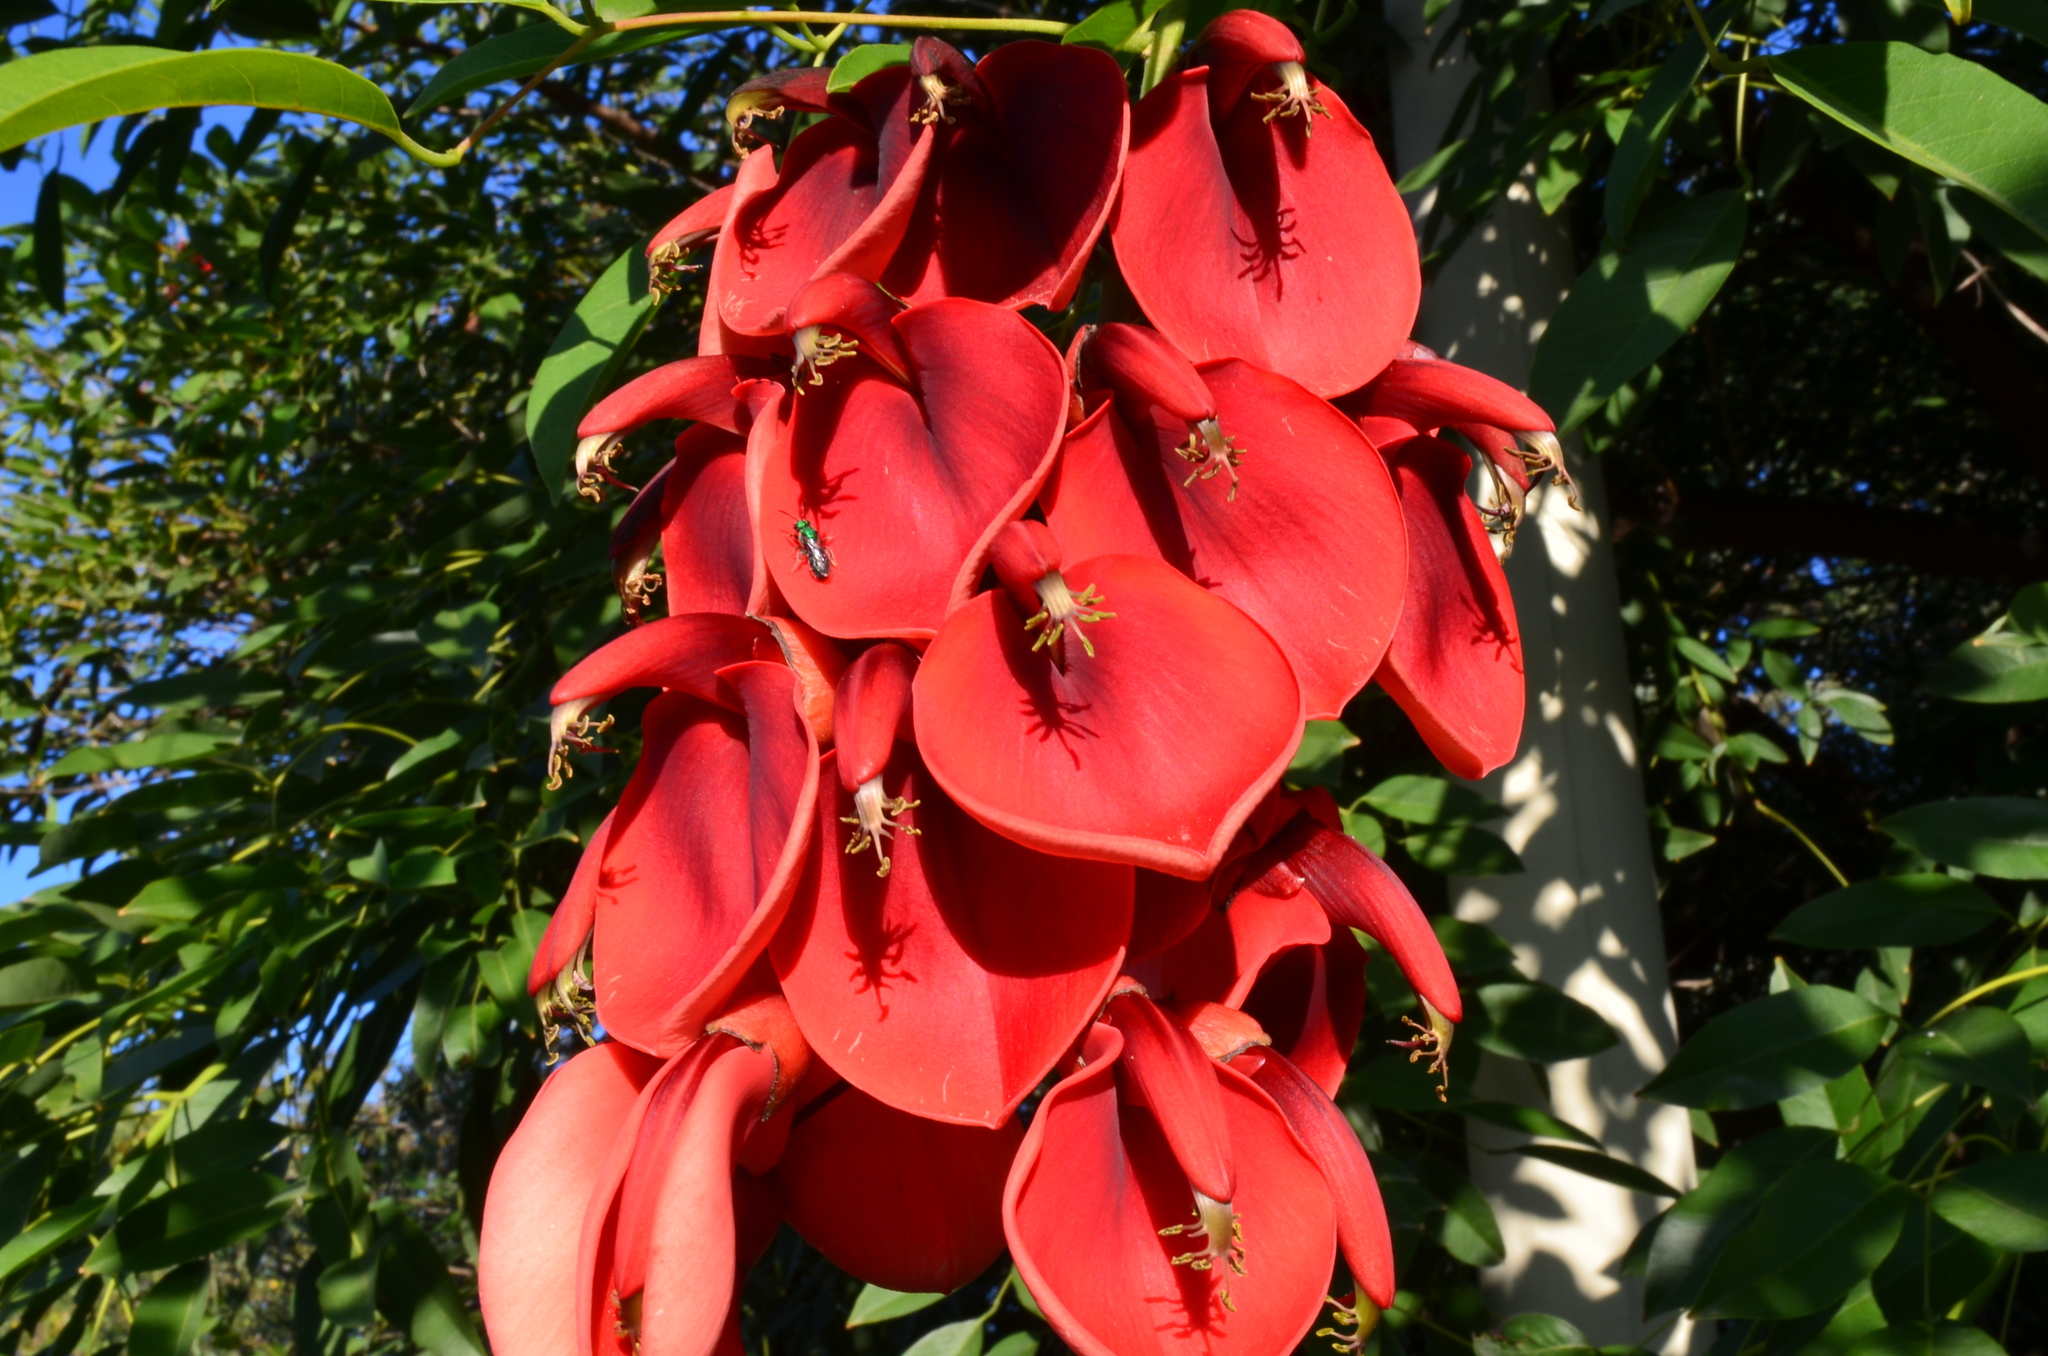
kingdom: Plantae
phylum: Tracheophyta
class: Magnoliopsida
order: Fabales
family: Fabaceae
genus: Erythrina
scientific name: Erythrina crista-galli
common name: Cockspur coral tree
